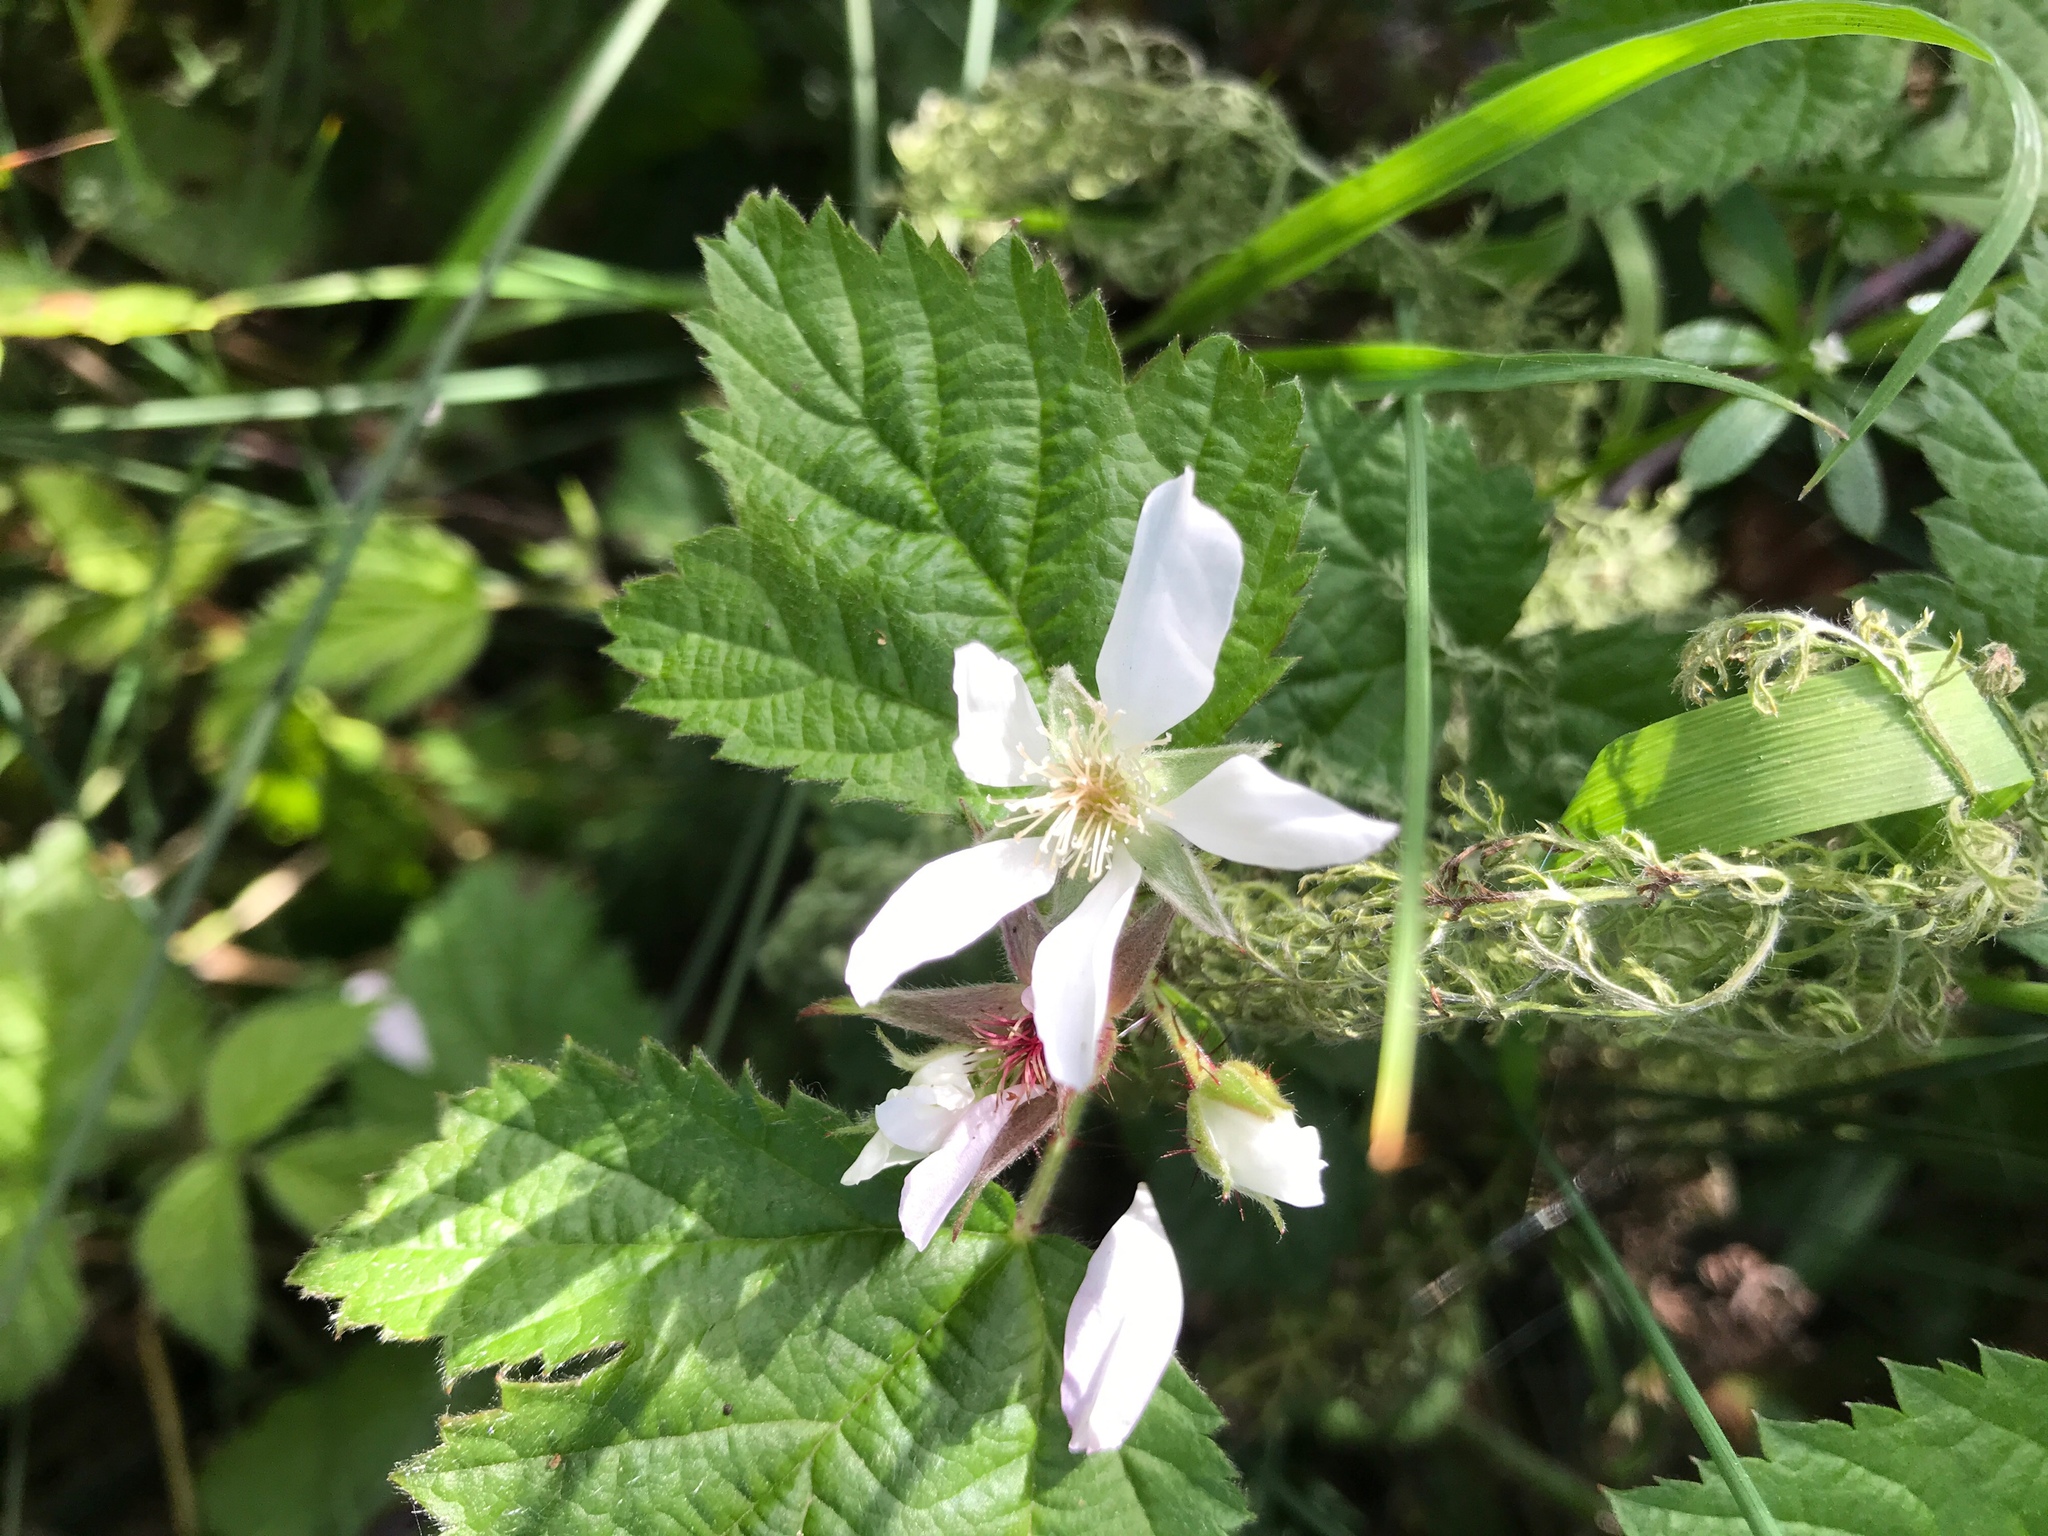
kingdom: Plantae
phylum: Tracheophyta
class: Magnoliopsida
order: Rosales
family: Rosaceae
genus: Rubus
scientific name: Rubus ursinus
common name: Pacific blackberry
